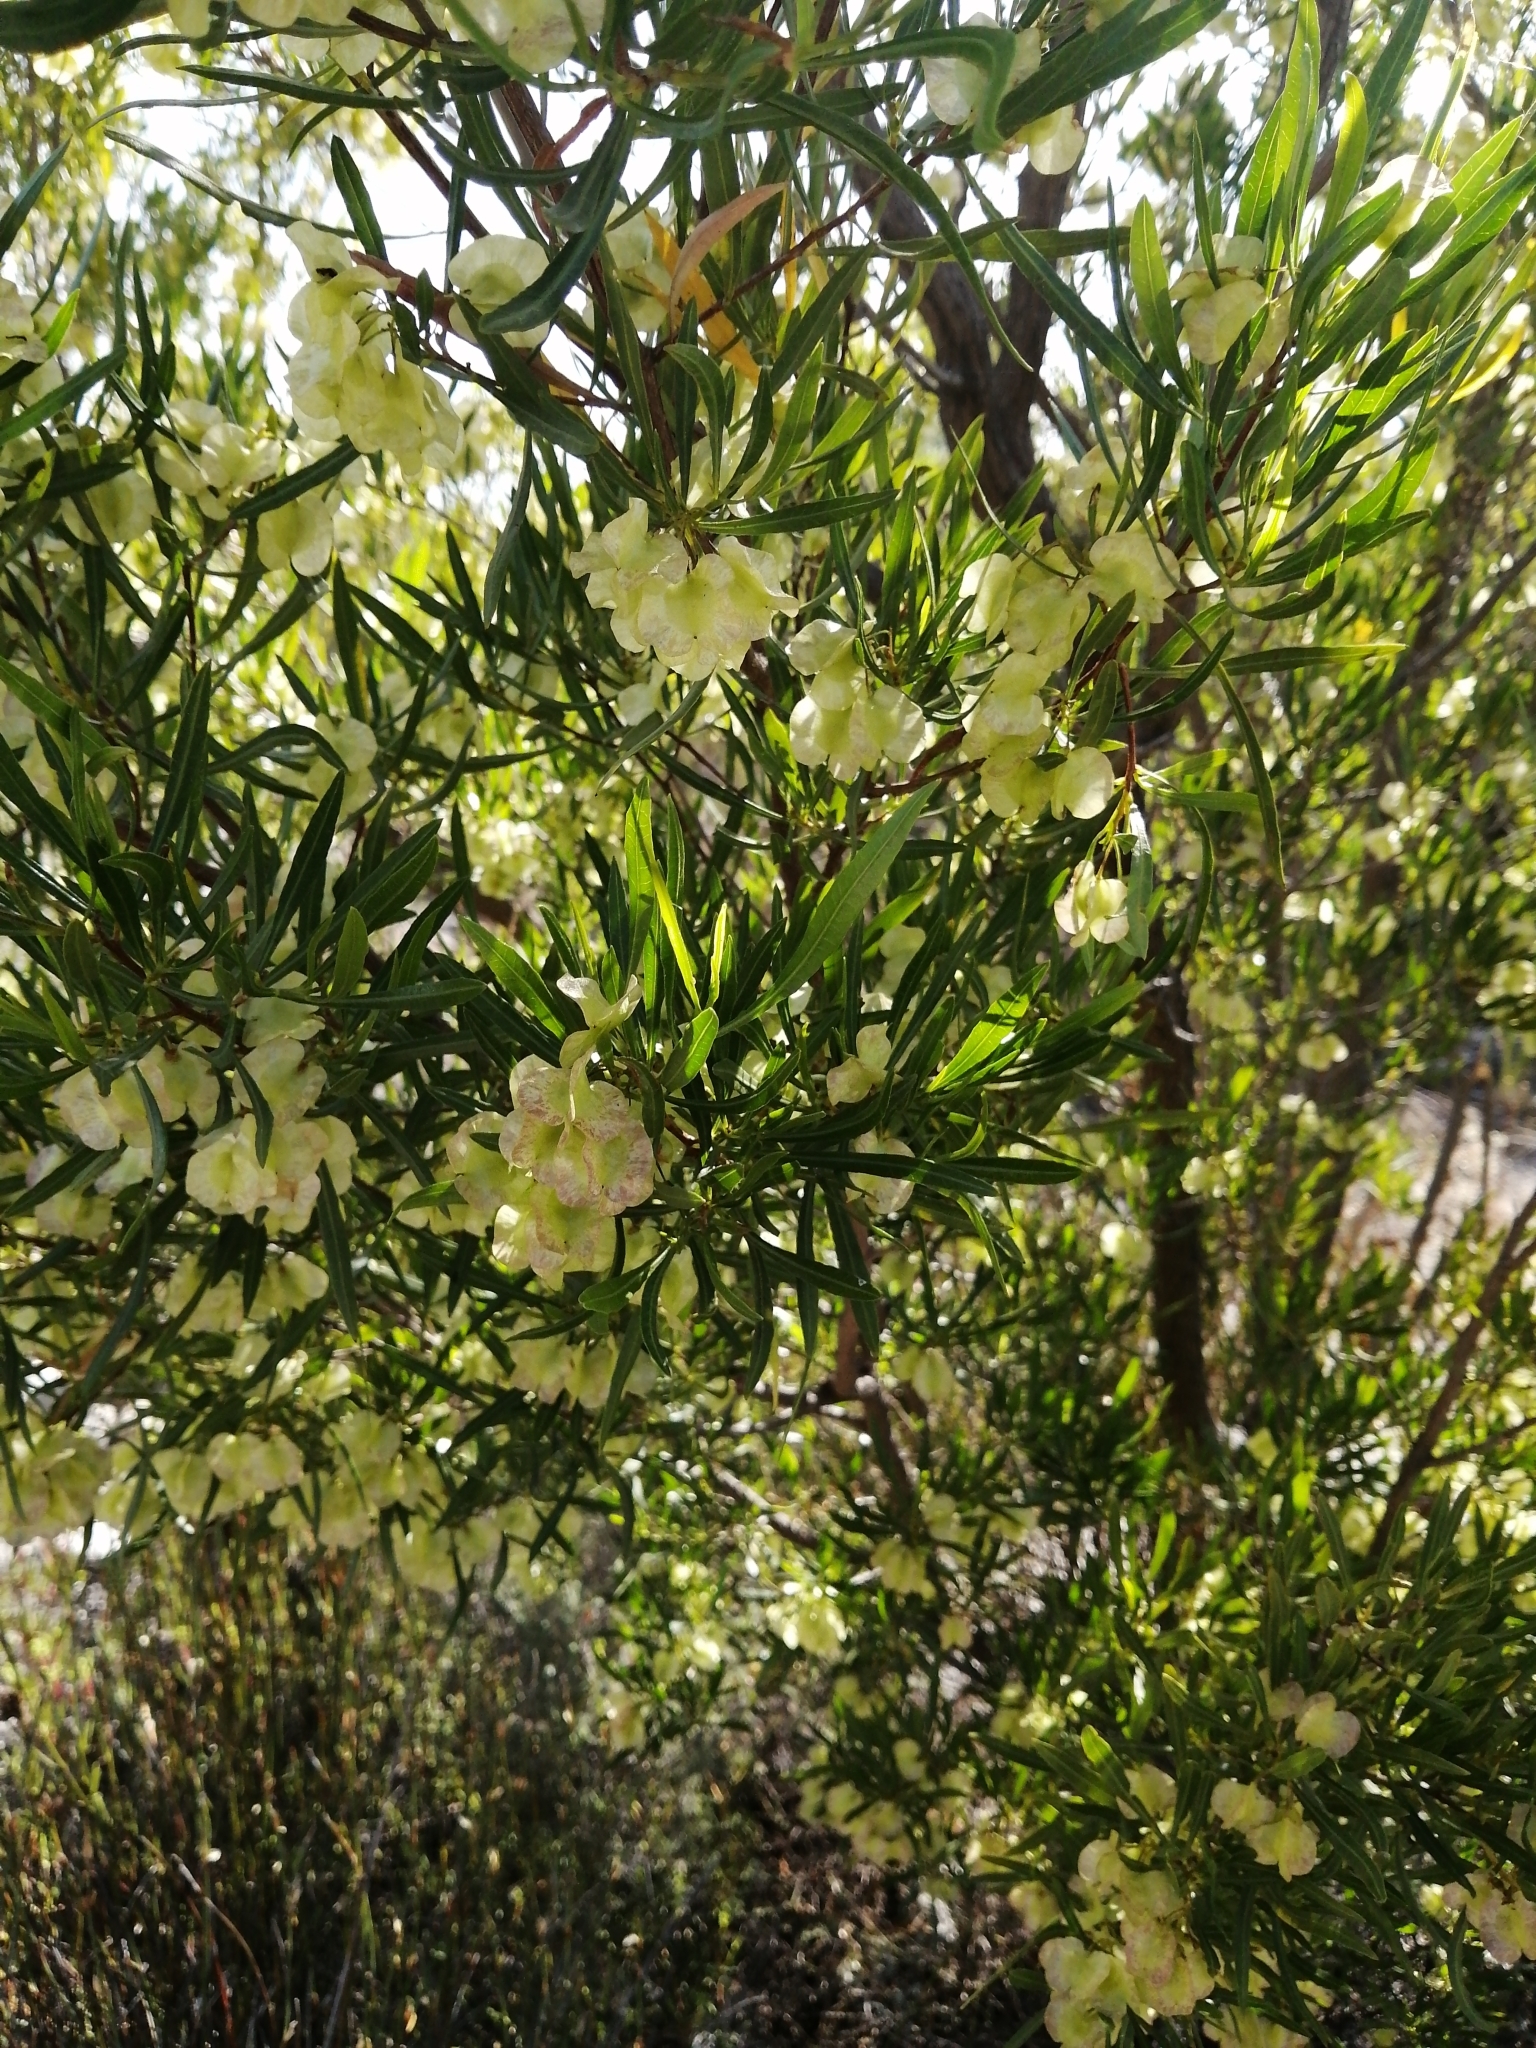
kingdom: Plantae
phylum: Tracheophyta
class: Magnoliopsida
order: Sapindales
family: Sapindaceae
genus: Dodonaea
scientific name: Dodonaea viscosa
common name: Hopbush
